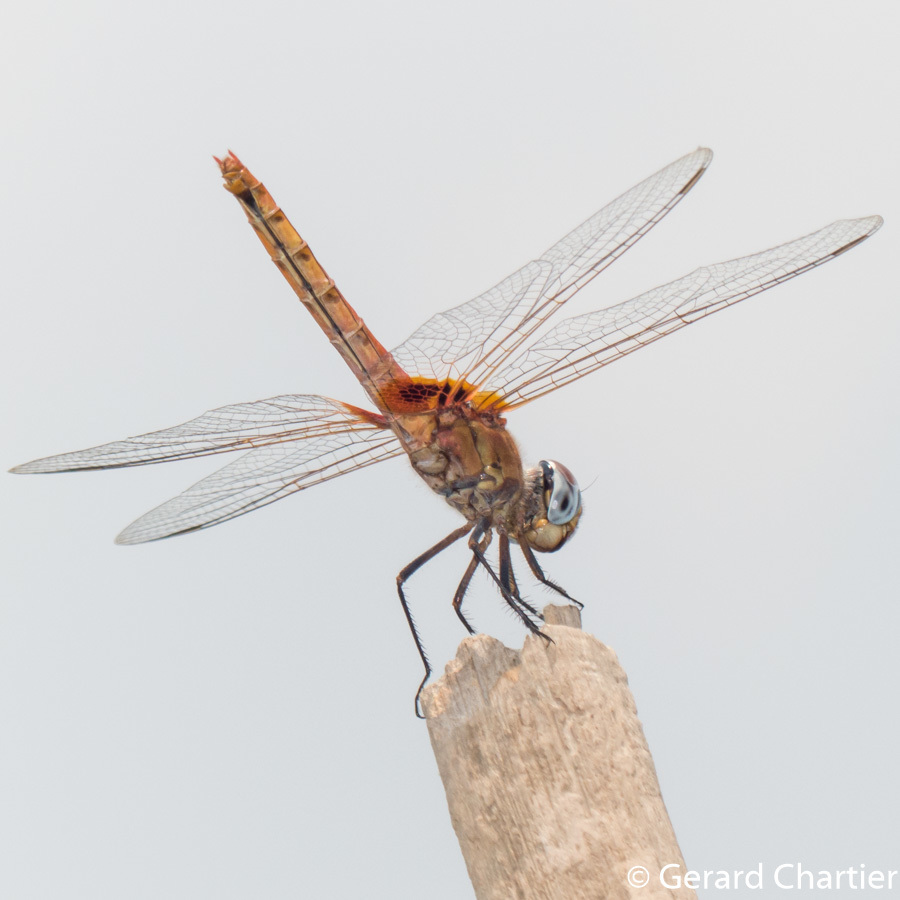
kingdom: Animalia
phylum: Arthropoda
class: Insecta
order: Odonata
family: Libellulidae
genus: Crocothemis
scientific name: Crocothemis servilia
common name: Scarlet skimmer
